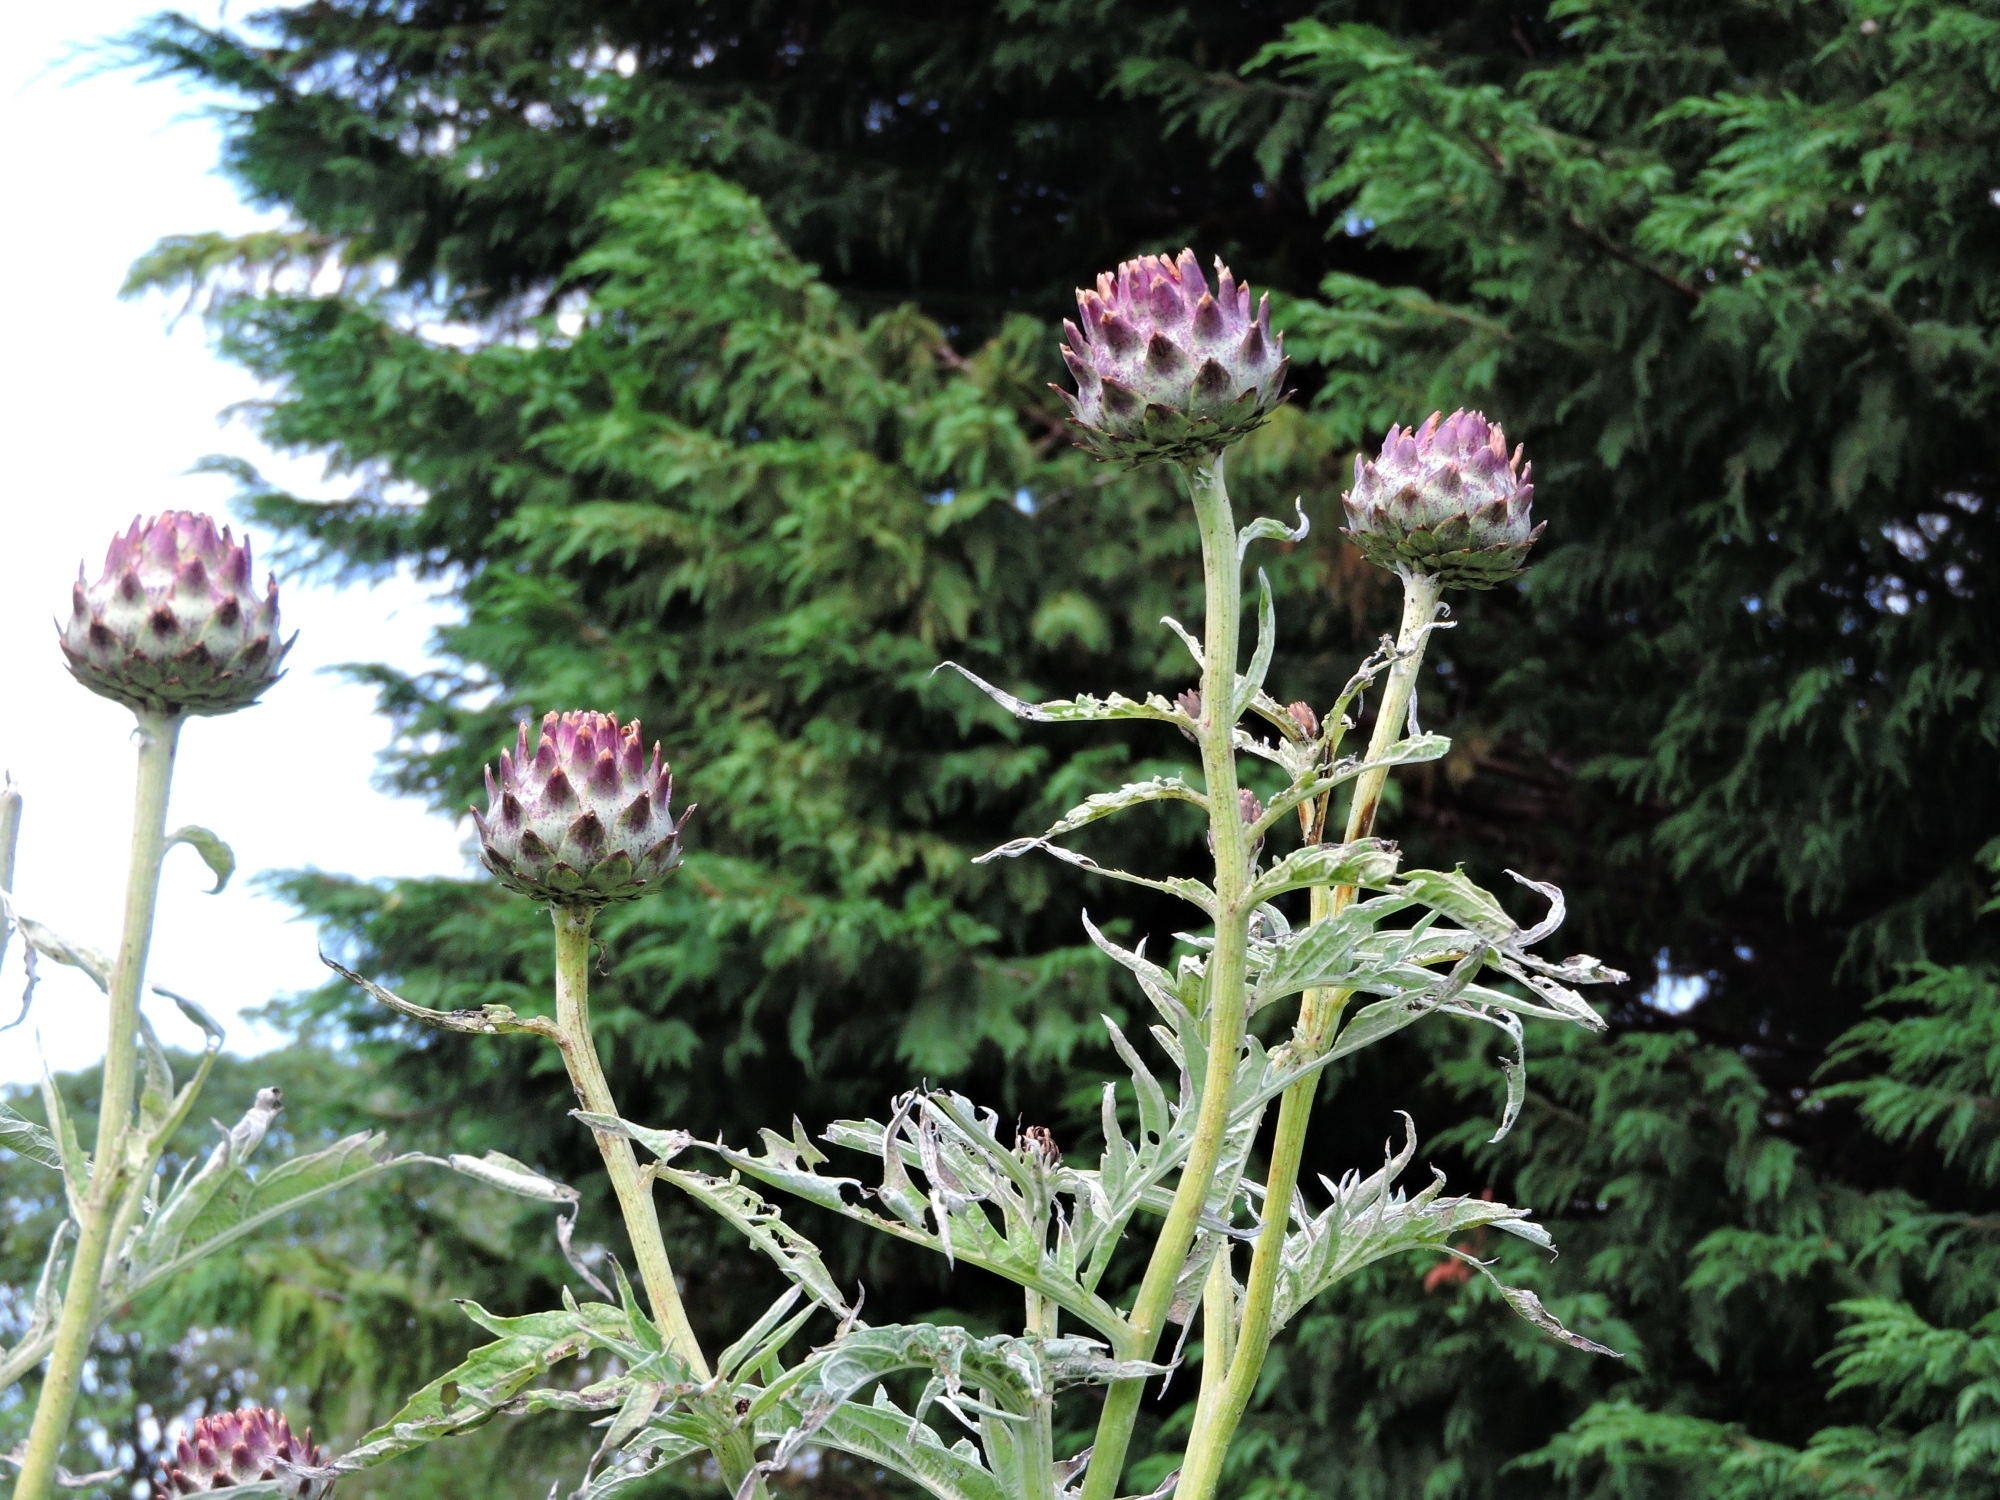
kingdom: Plantae
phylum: Tracheophyta
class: Magnoliopsida
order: Asterales
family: Asteraceae
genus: Cynara
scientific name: Cynara cardunculus
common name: Globe artichoke
